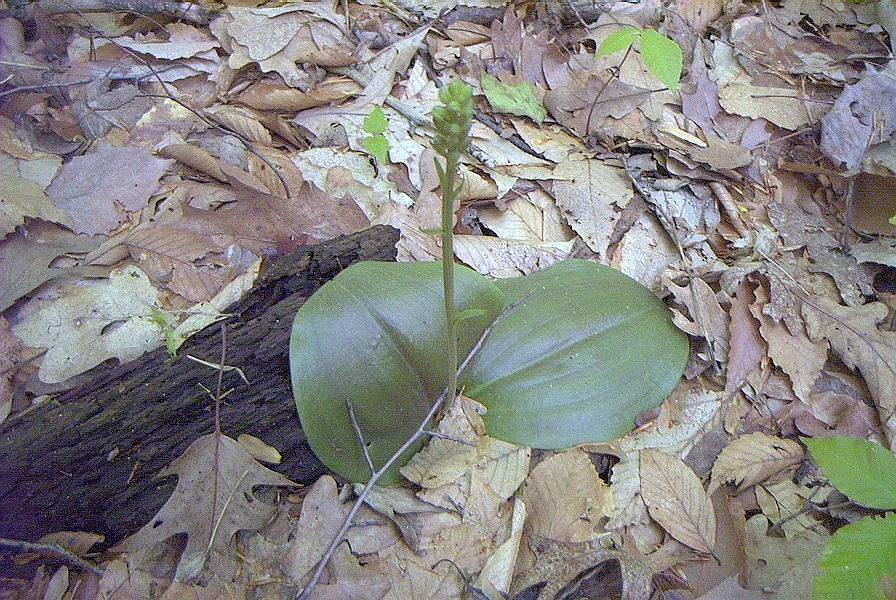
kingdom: Plantae
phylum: Tracheophyta
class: Liliopsida
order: Asparagales
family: Orchidaceae
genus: Platanthera
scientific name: Platanthera orbiculata
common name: Large round-leaved orchid
